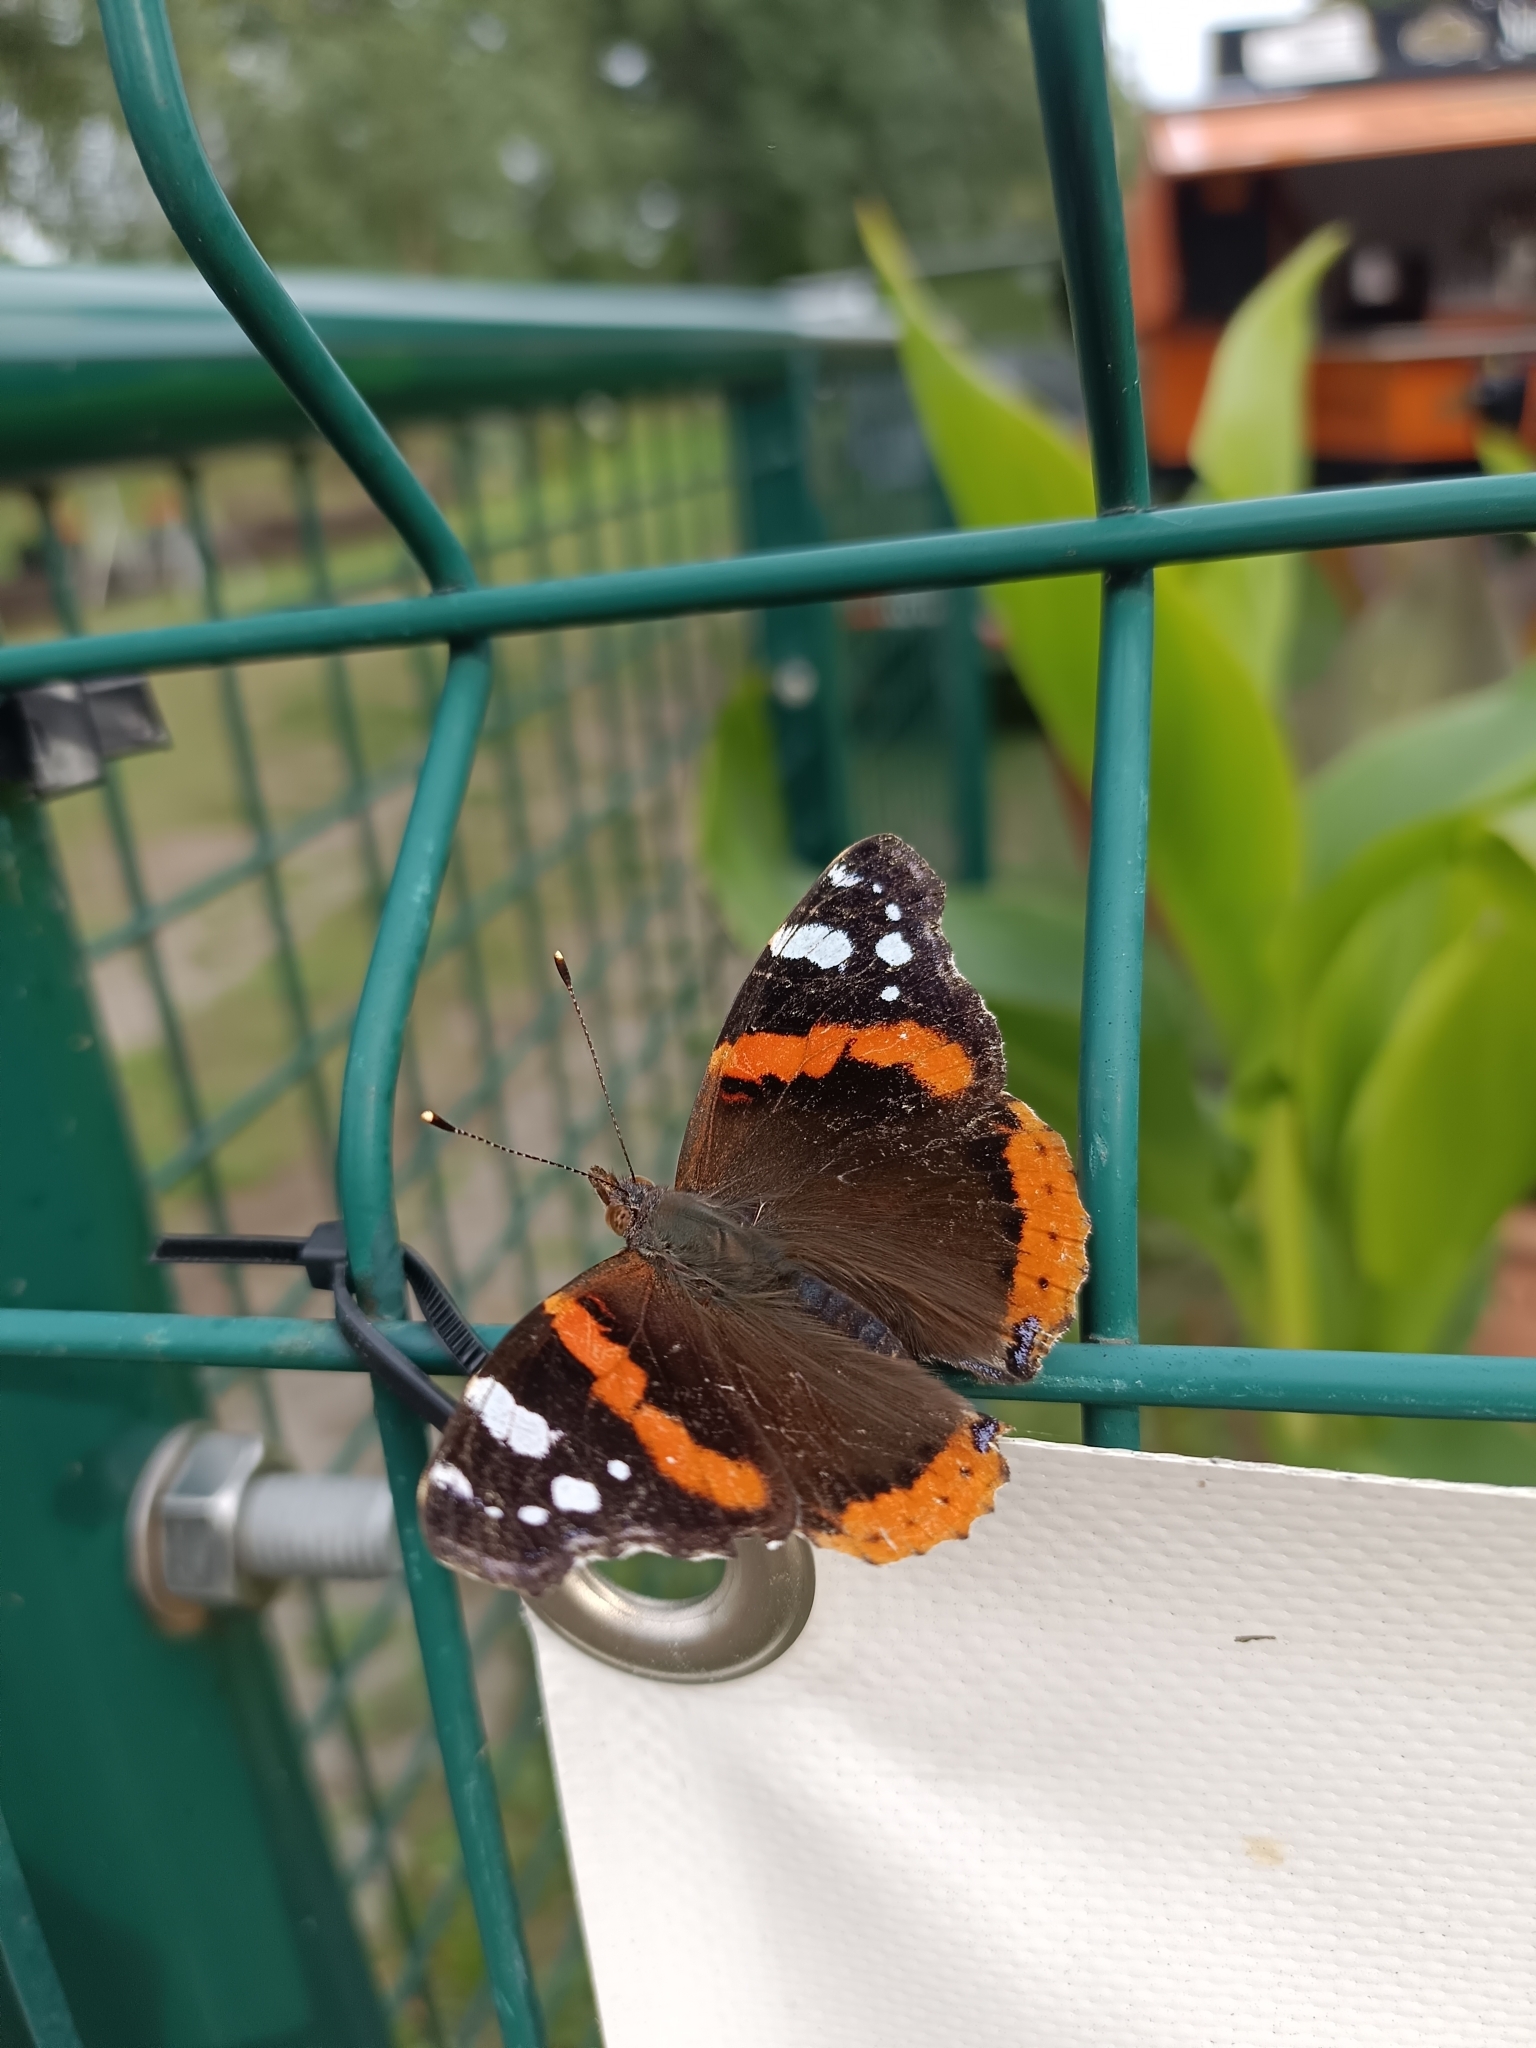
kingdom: Animalia
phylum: Arthropoda
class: Insecta
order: Lepidoptera
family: Nymphalidae
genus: Vanessa
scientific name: Vanessa atalanta
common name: Red admiral
